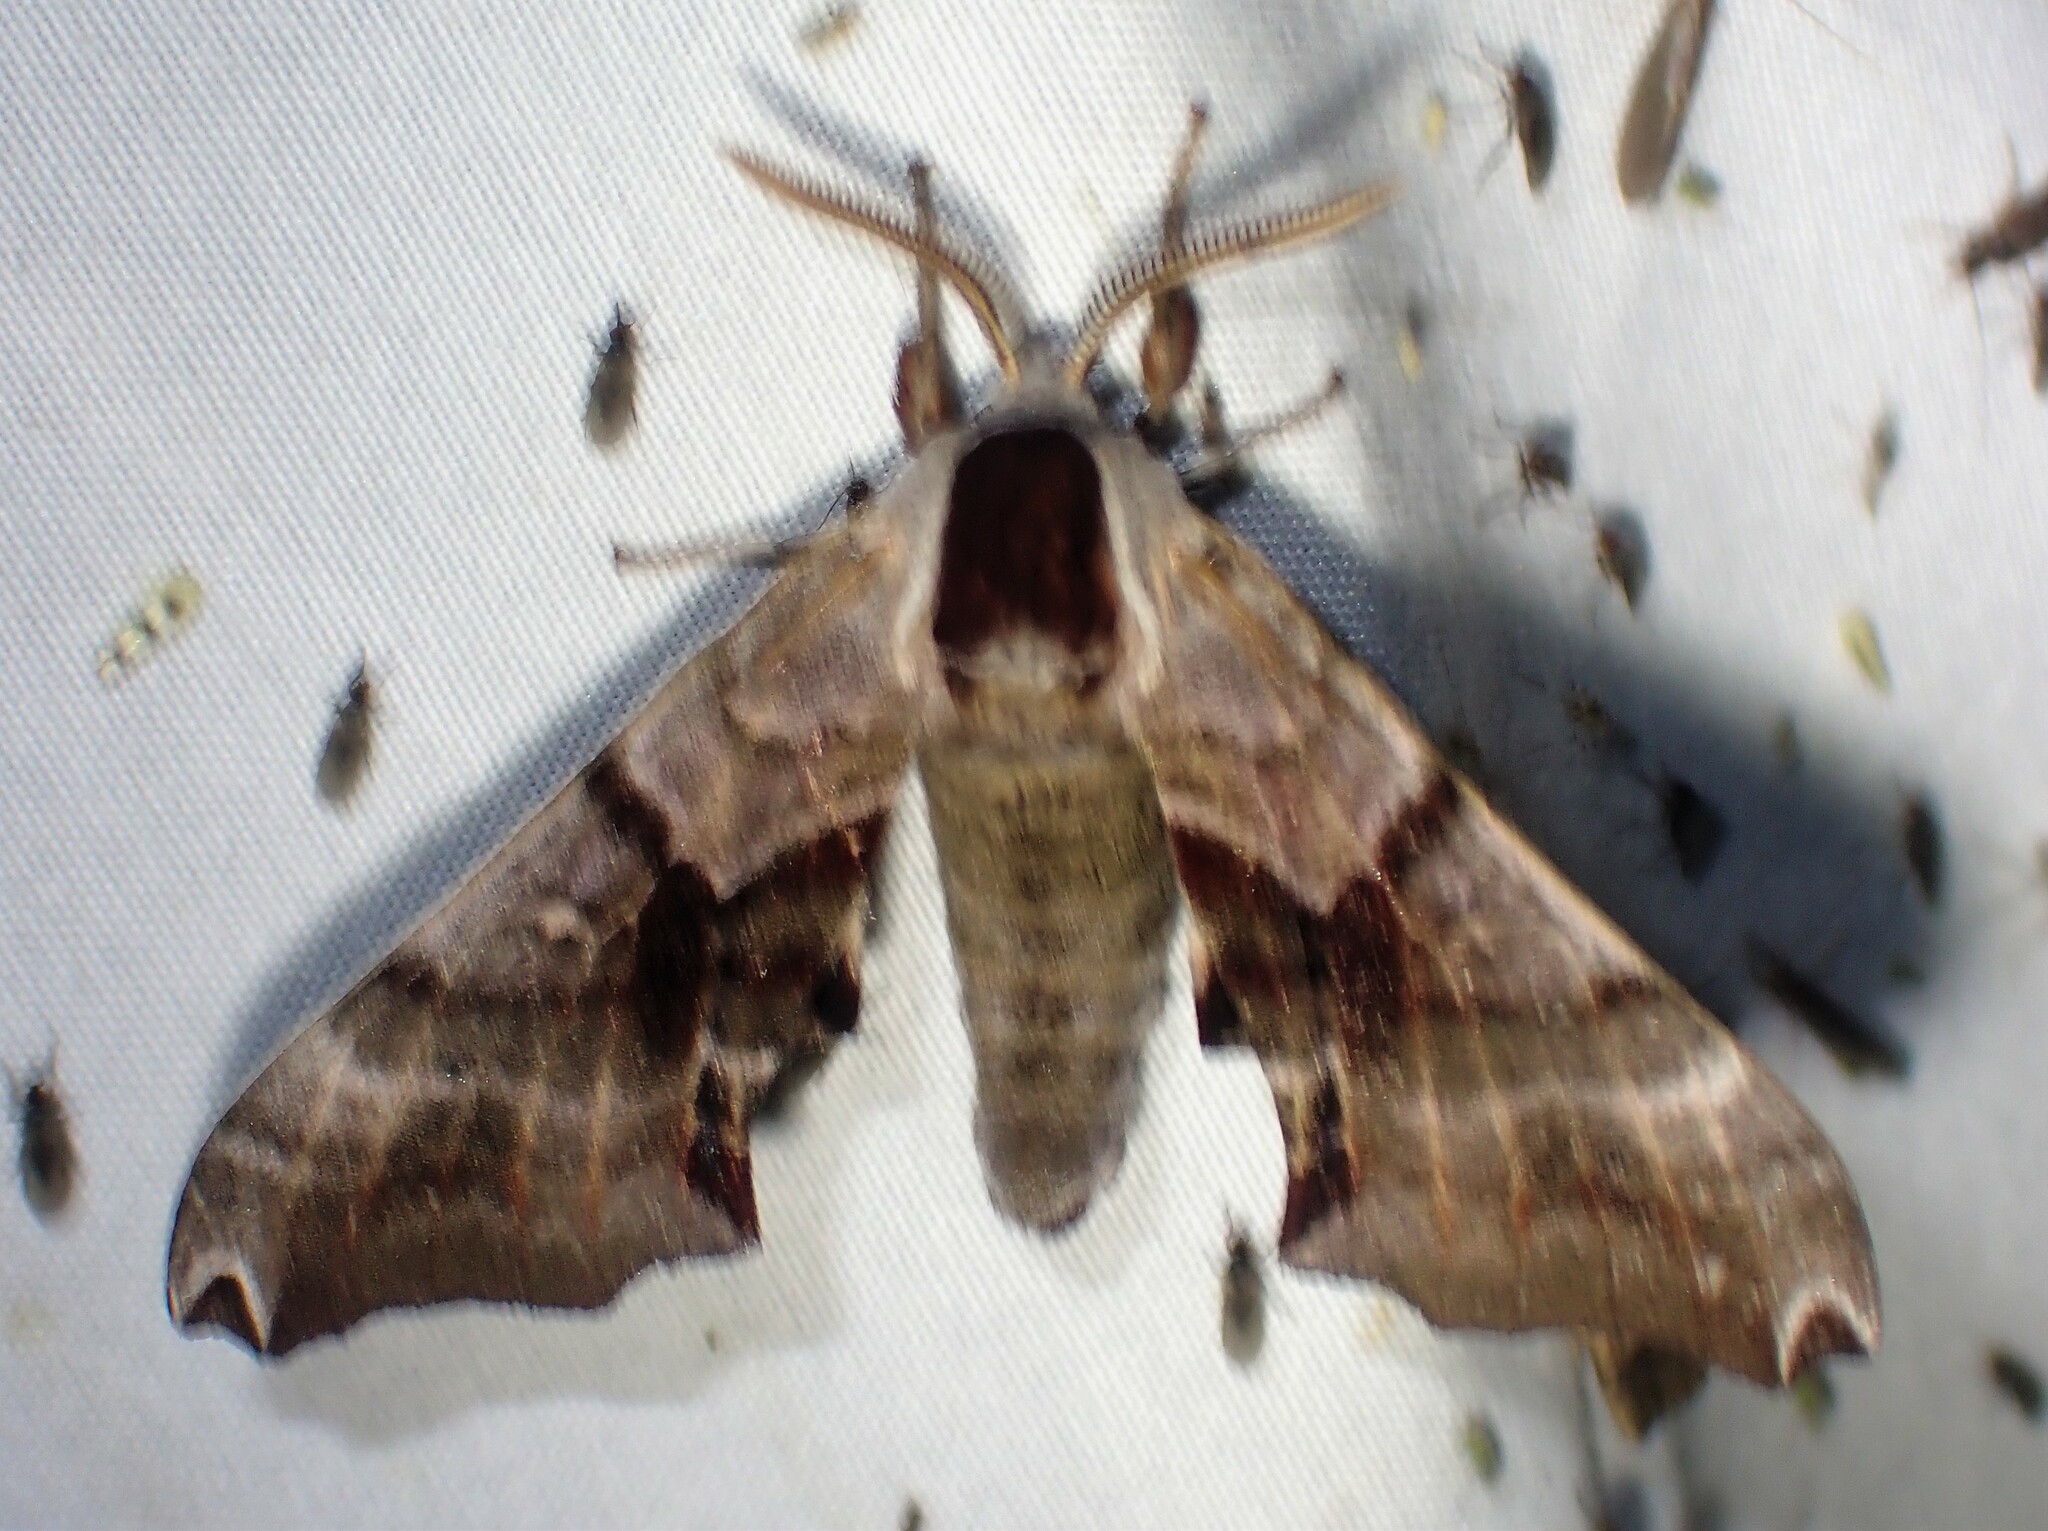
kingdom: Animalia
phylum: Arthropoda
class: Insecta
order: Lepidoptera
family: Sphingidae
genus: Smerinthus
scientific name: Smerinthus jamaicensis
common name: Twin spotted sphinx
